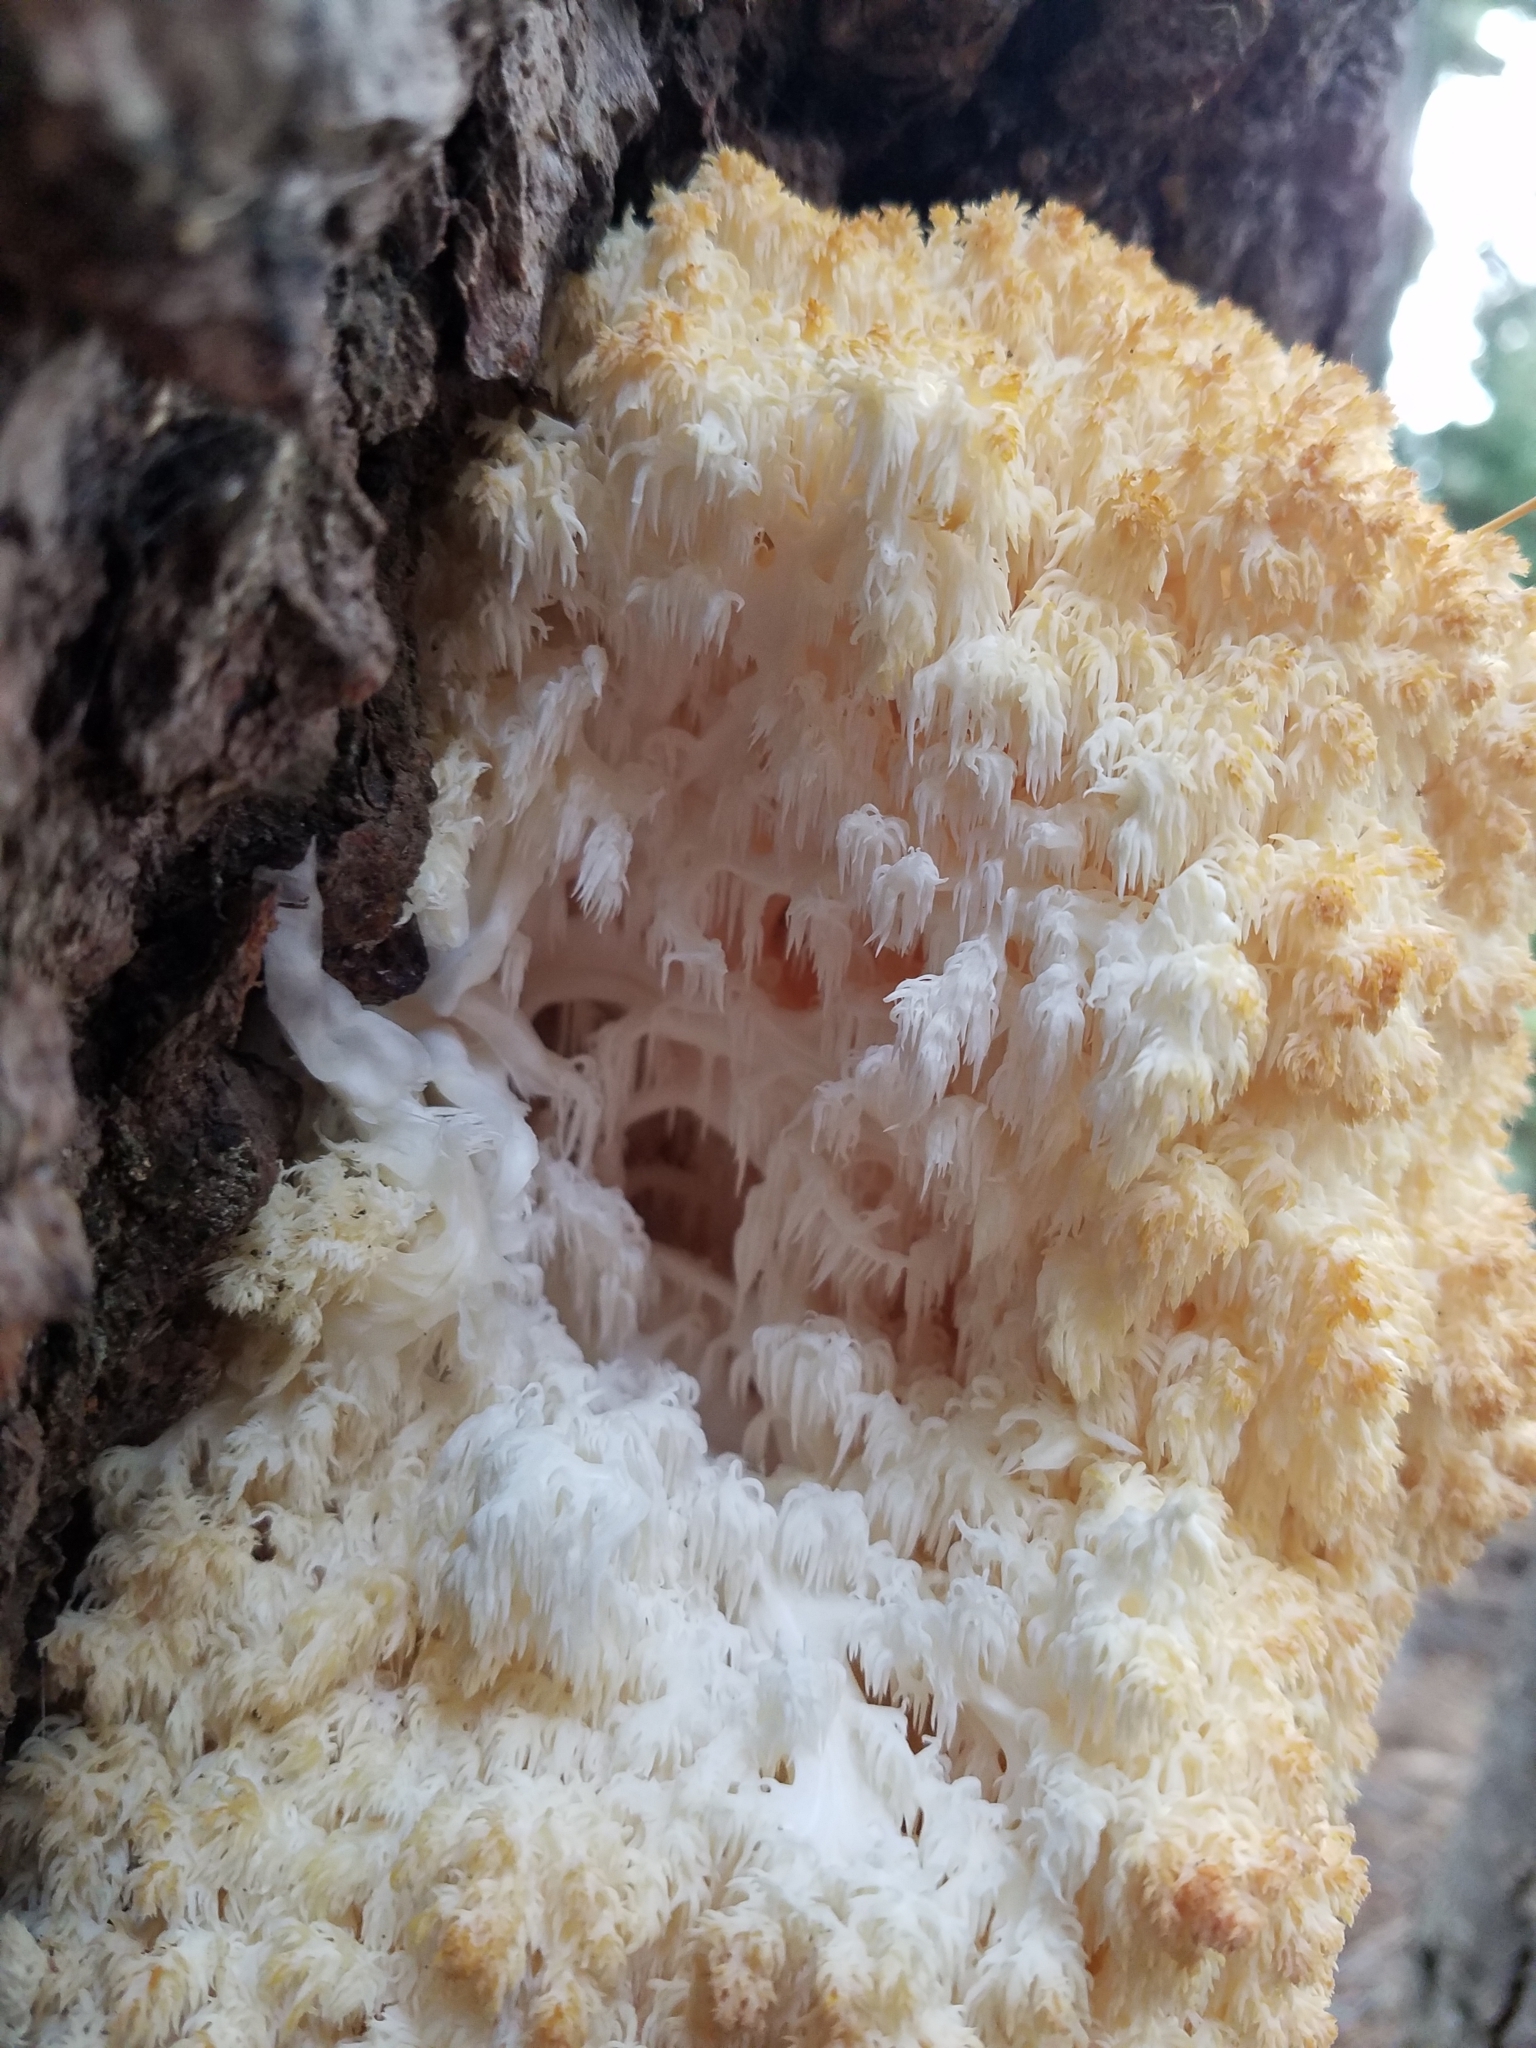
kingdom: Fungi
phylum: Basidiomycota
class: Agaricomycetes
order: Russulales
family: Hericiaceae
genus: Hericium
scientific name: Hericium abietis
